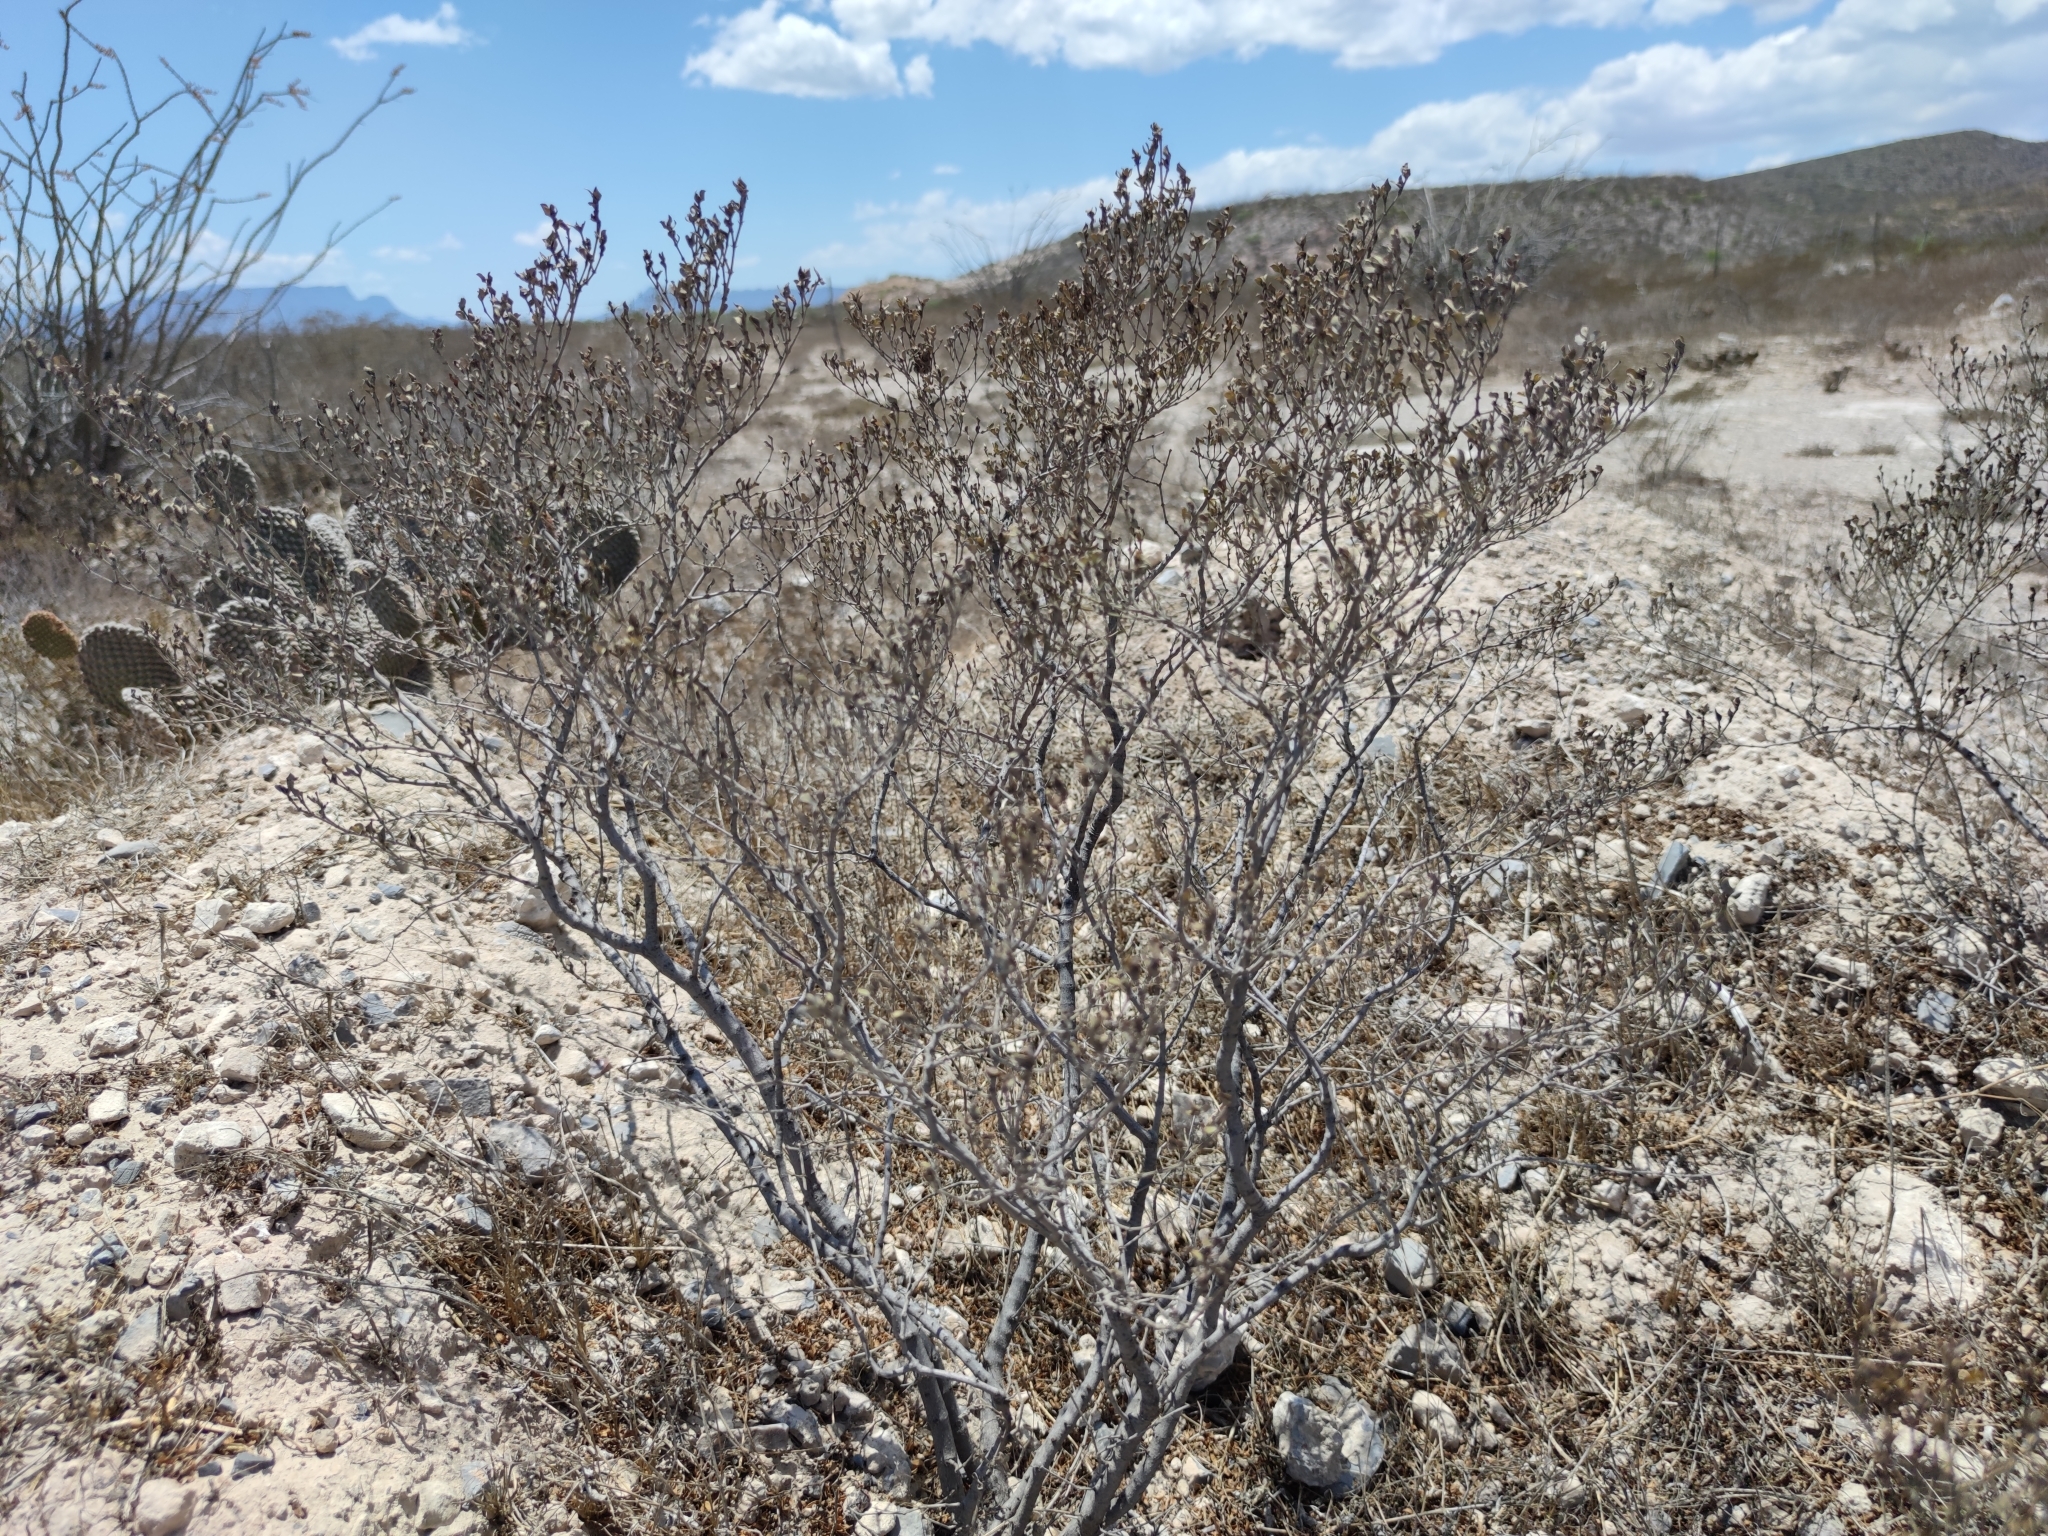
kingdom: Plantae
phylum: Tracheophyta
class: Magnoliopsida
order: Zygophyllales
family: Zygophyllaceae
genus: Larrea
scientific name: Larrea tridentata
